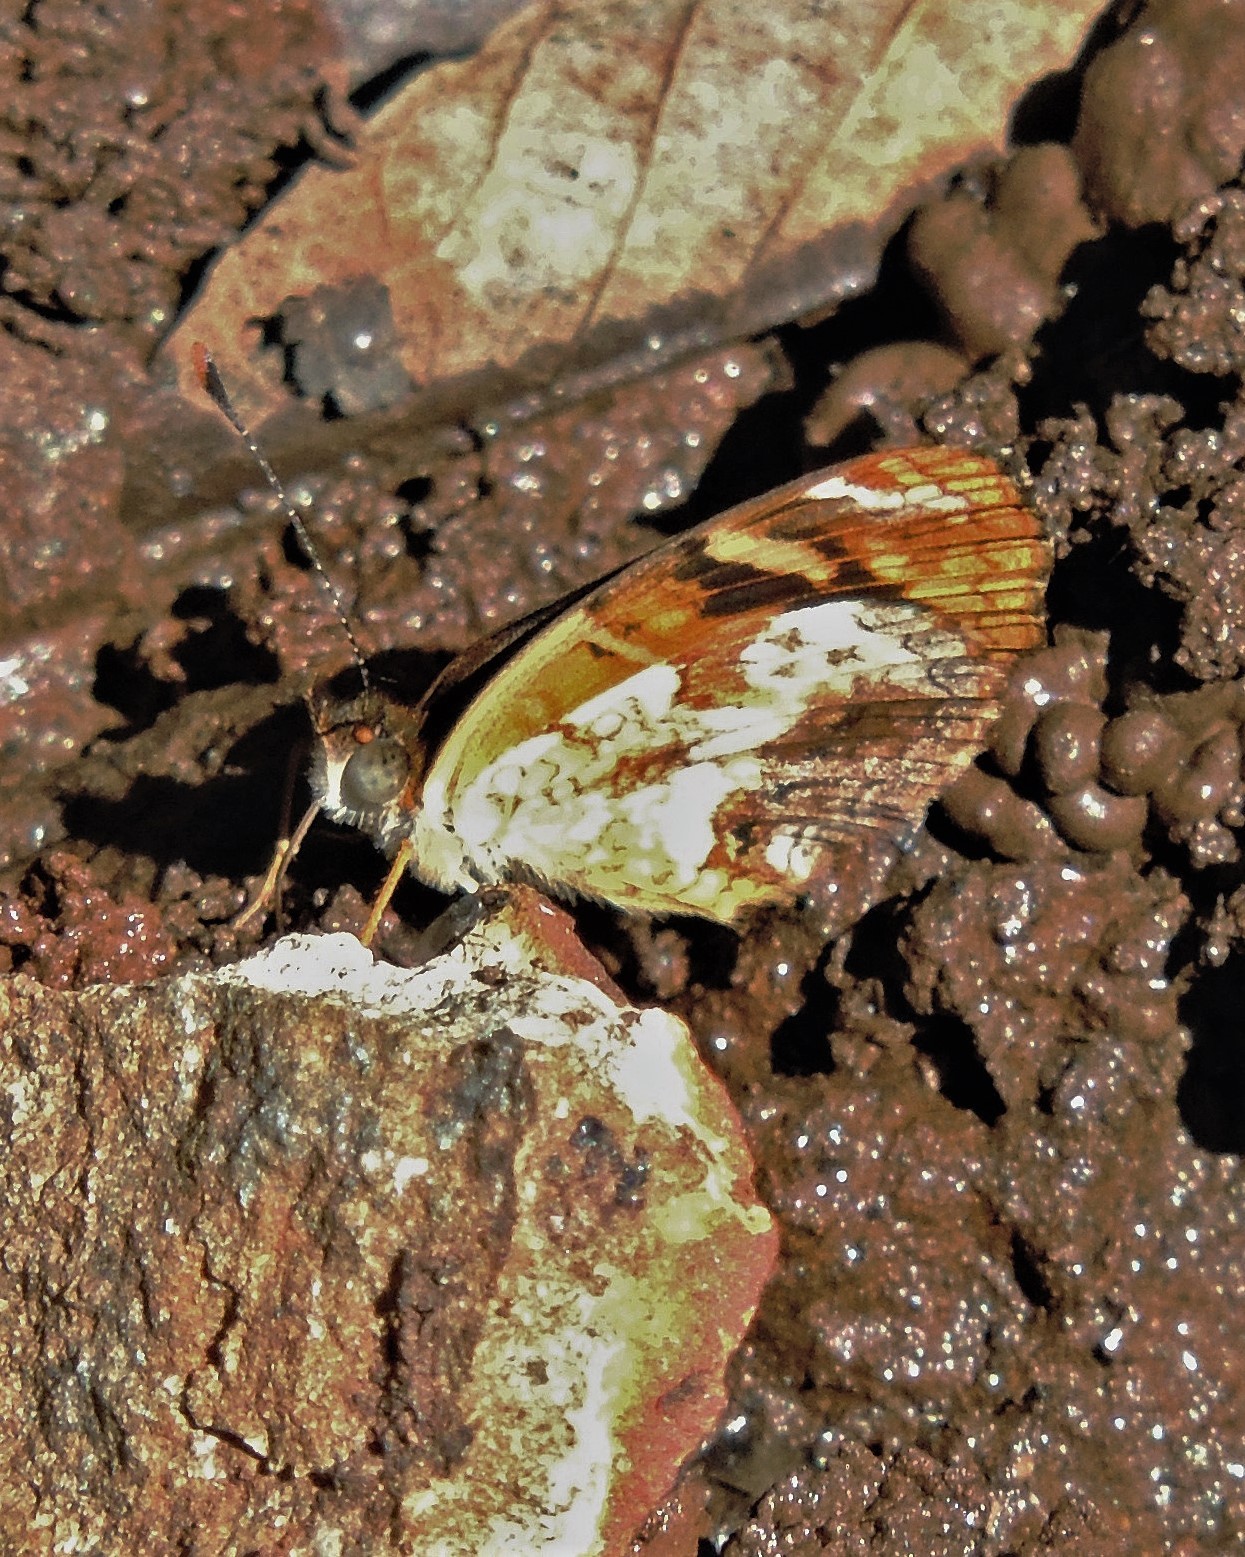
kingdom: Animalia
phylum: Arthropoda
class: Insecta
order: Lepidoptera
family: Nymphalidae
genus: Anthanassa
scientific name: Anthanassa hermas
